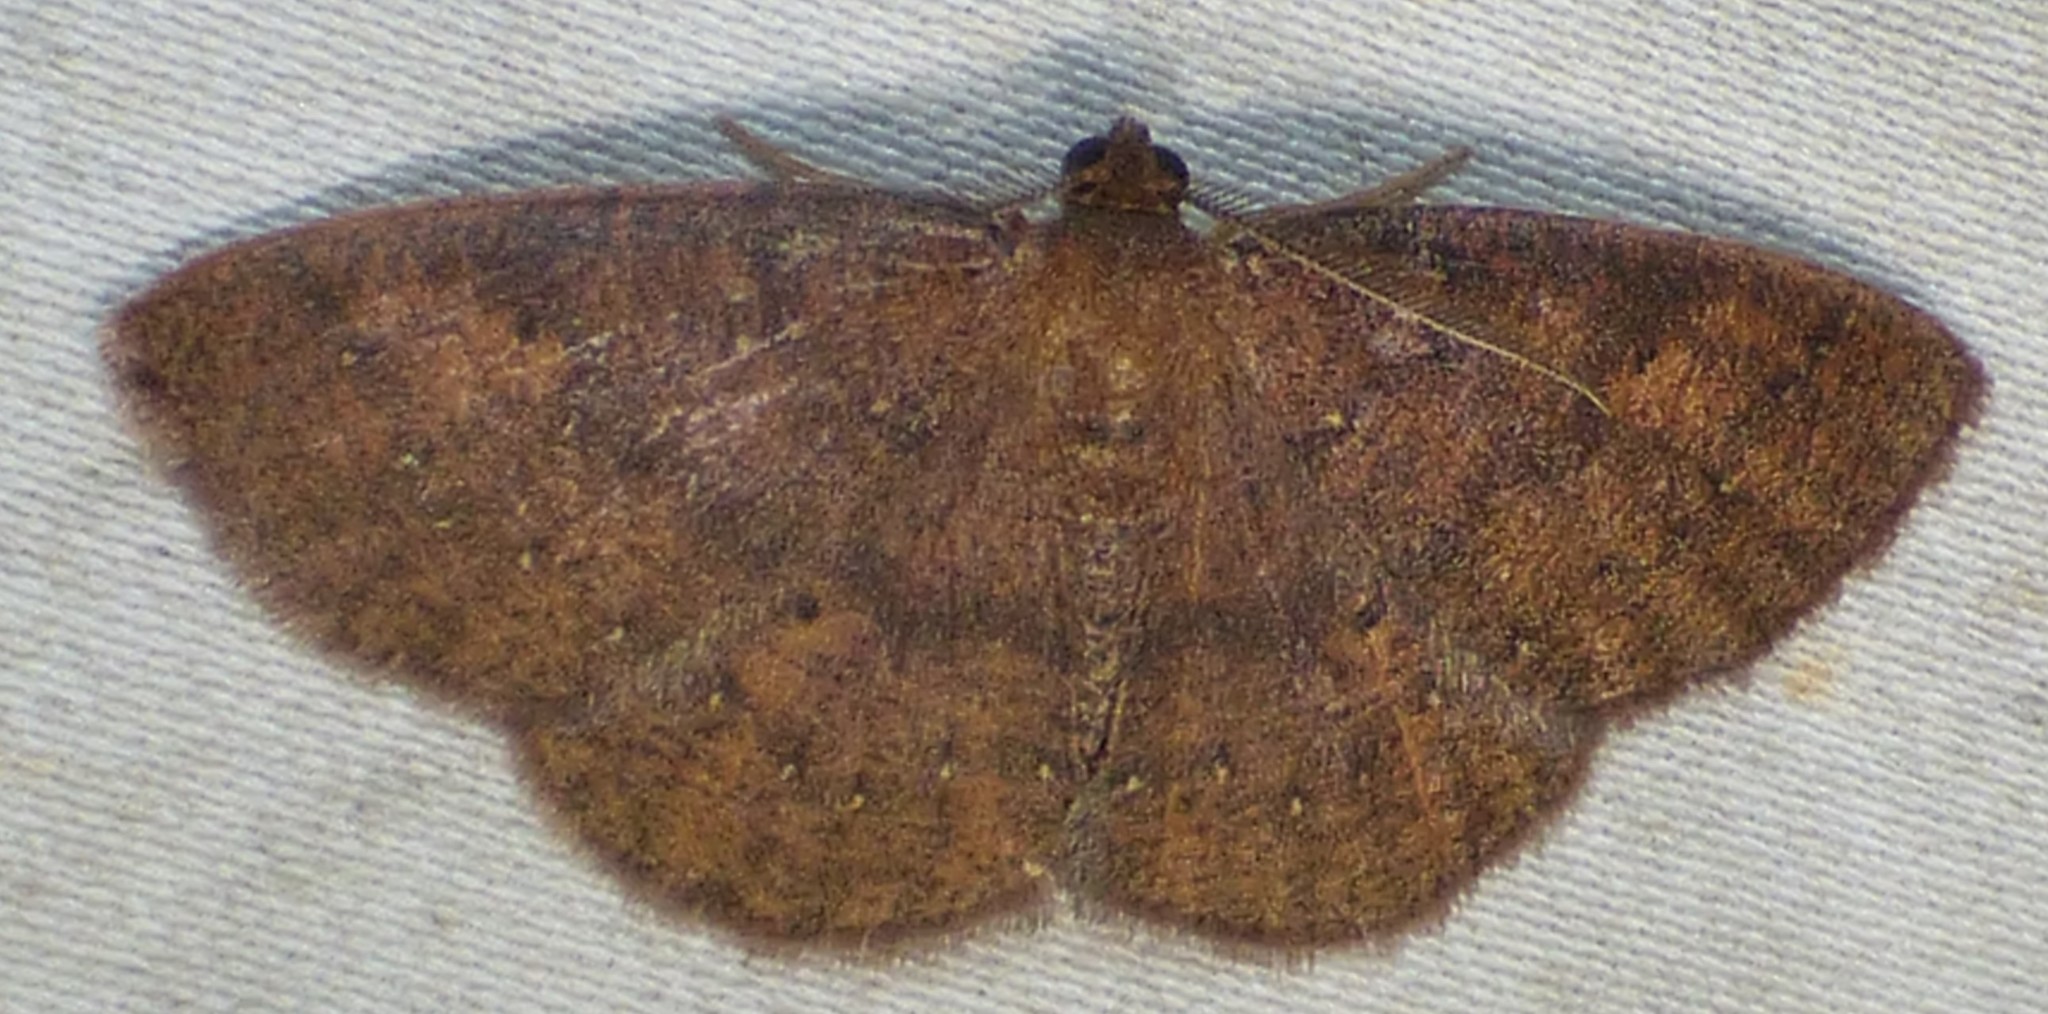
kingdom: Animalia
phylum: Arthropoda
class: Insecta
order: Lepidoptera
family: Geometridae
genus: Ilexia
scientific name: Ilexia intractata
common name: Black-dotted ruddy moth
